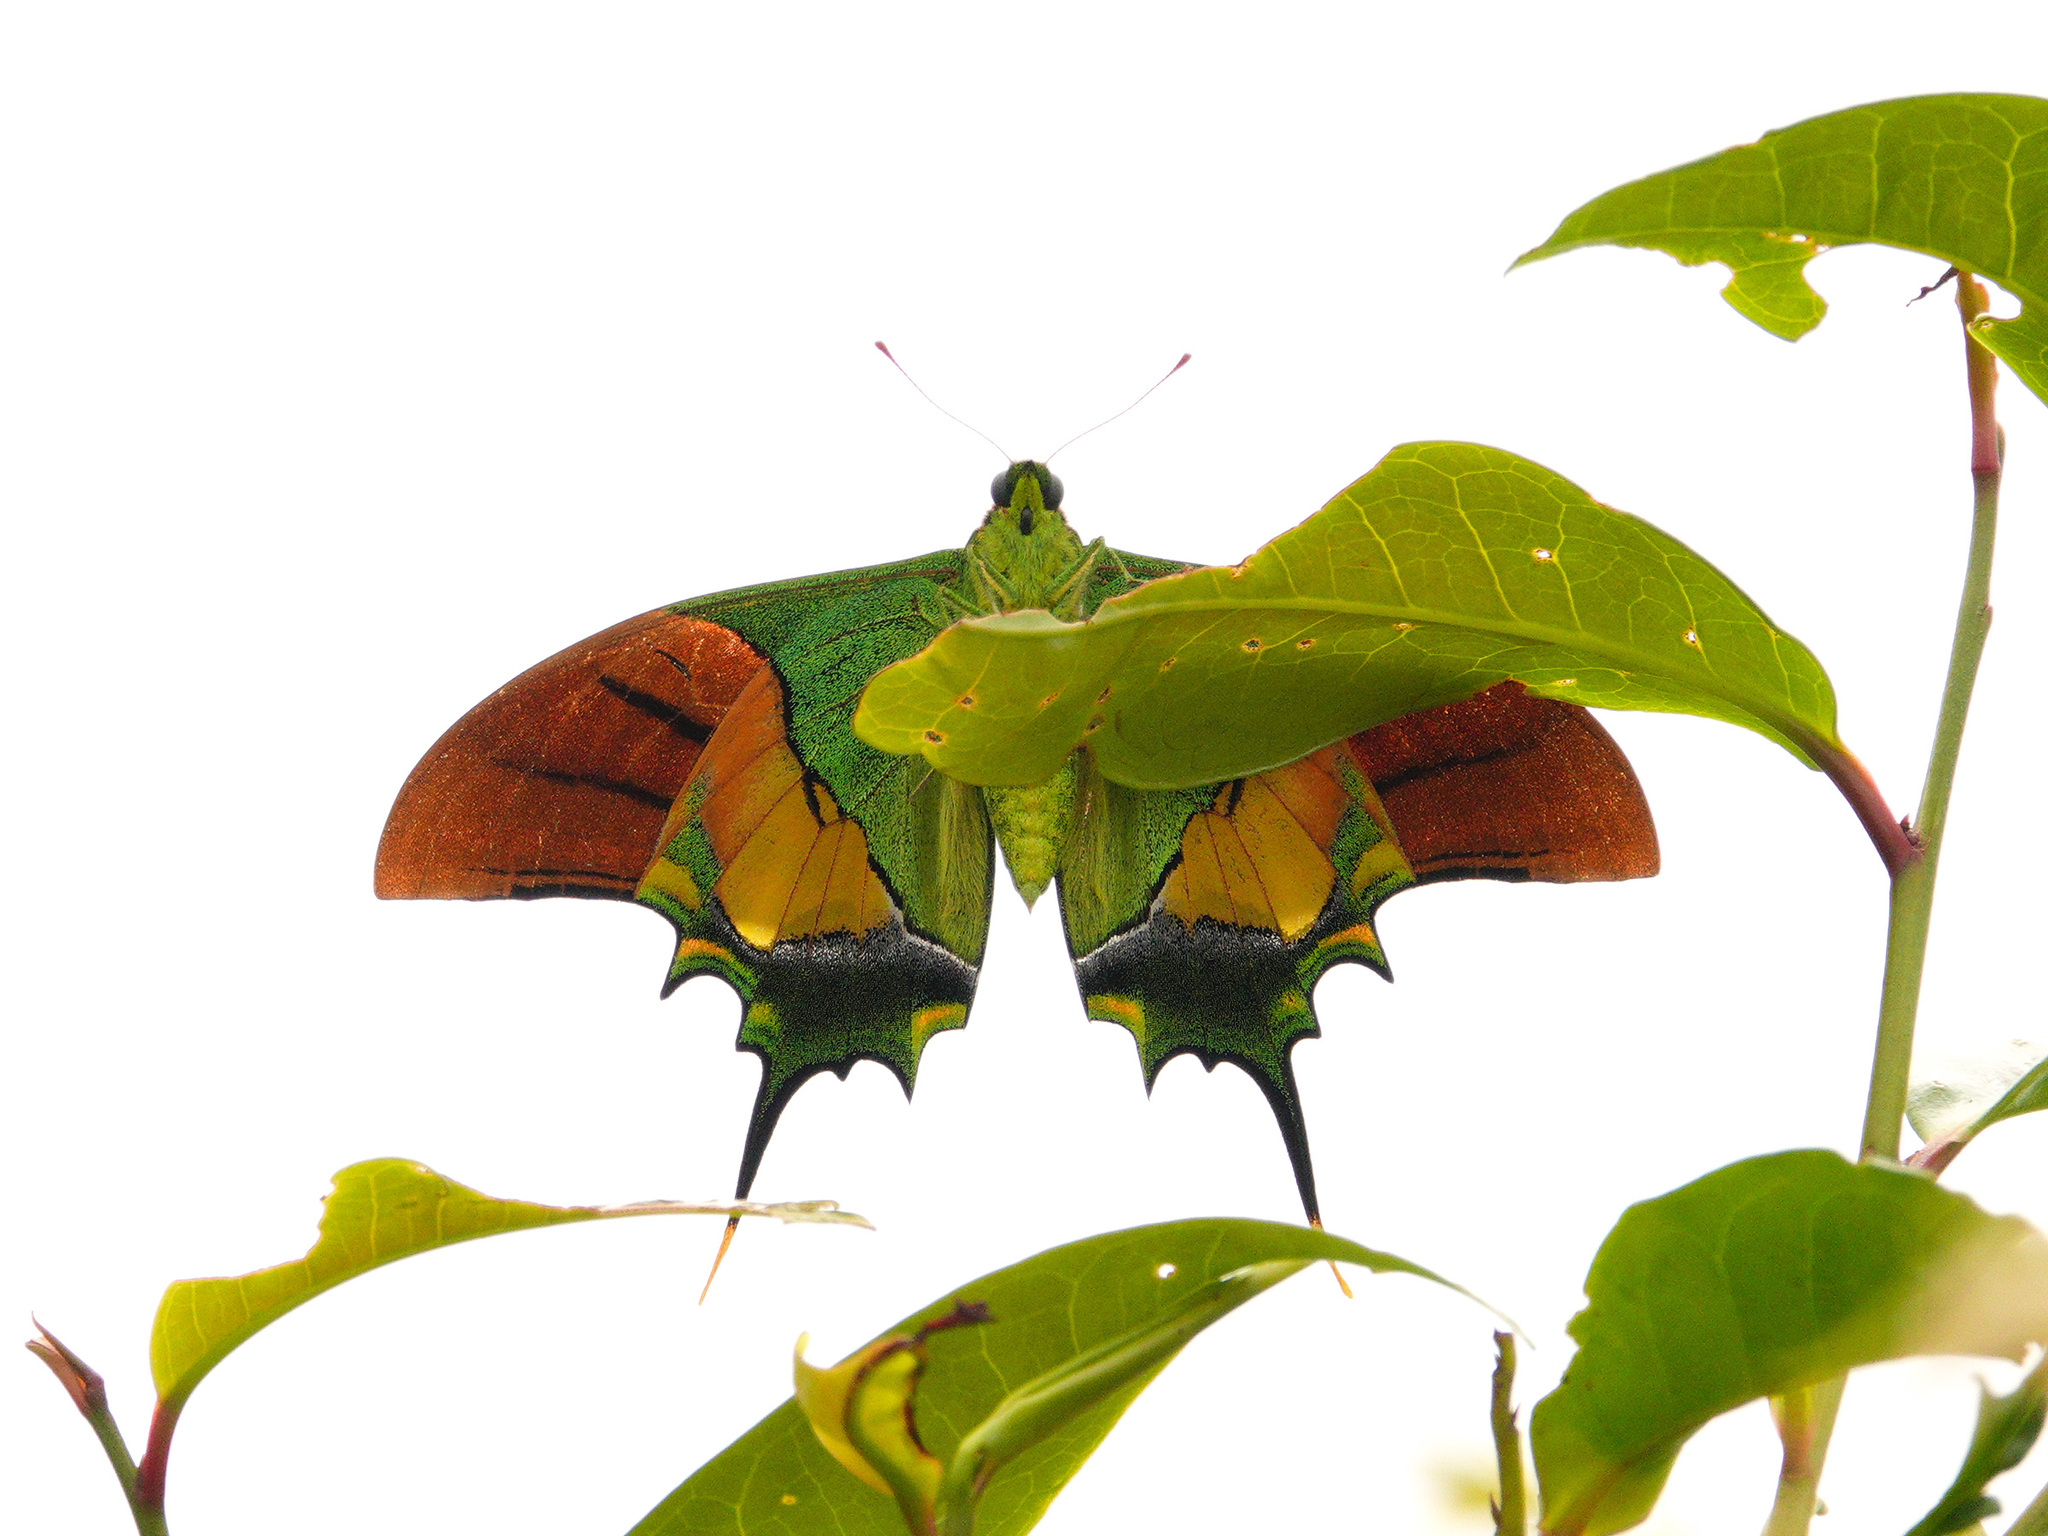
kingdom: Animalia
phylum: Arthropoda
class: Insecta
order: Lepidoptera
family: Papilionidae
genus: Teinopalpus
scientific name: Teinopalpus imperialis
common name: Kaiser-i-hind
